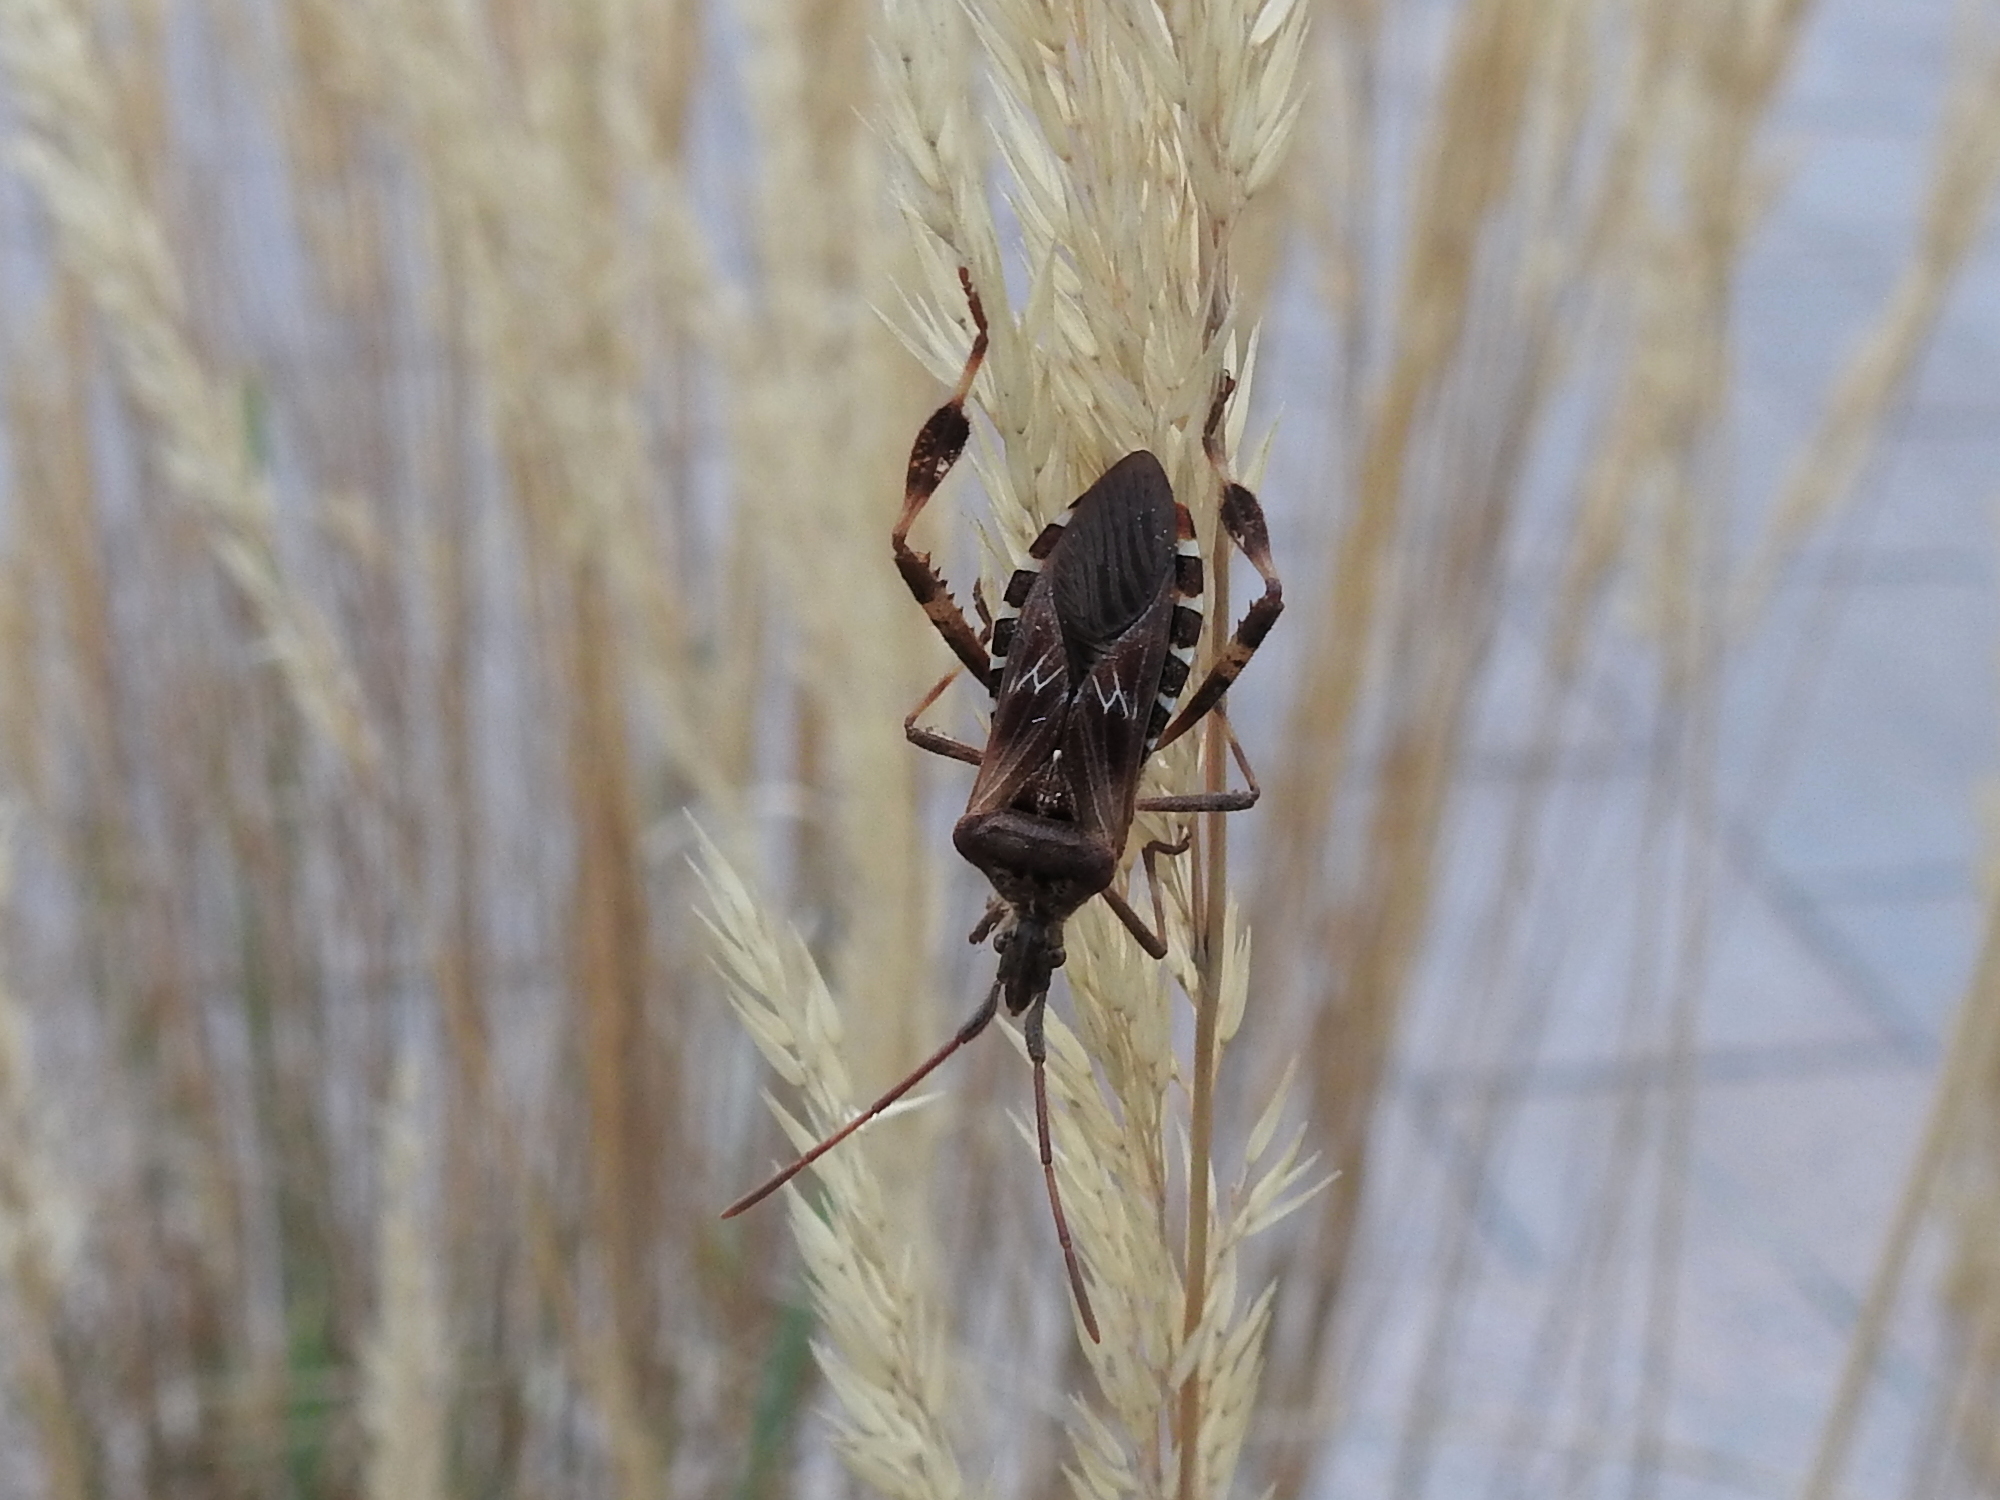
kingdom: Animalia
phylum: Arthropoda
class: Insecta
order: Hemiptera
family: Coreidae
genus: Leptoglossus
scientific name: Leptoglossus occidentalis
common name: Western conifer-seed bug
